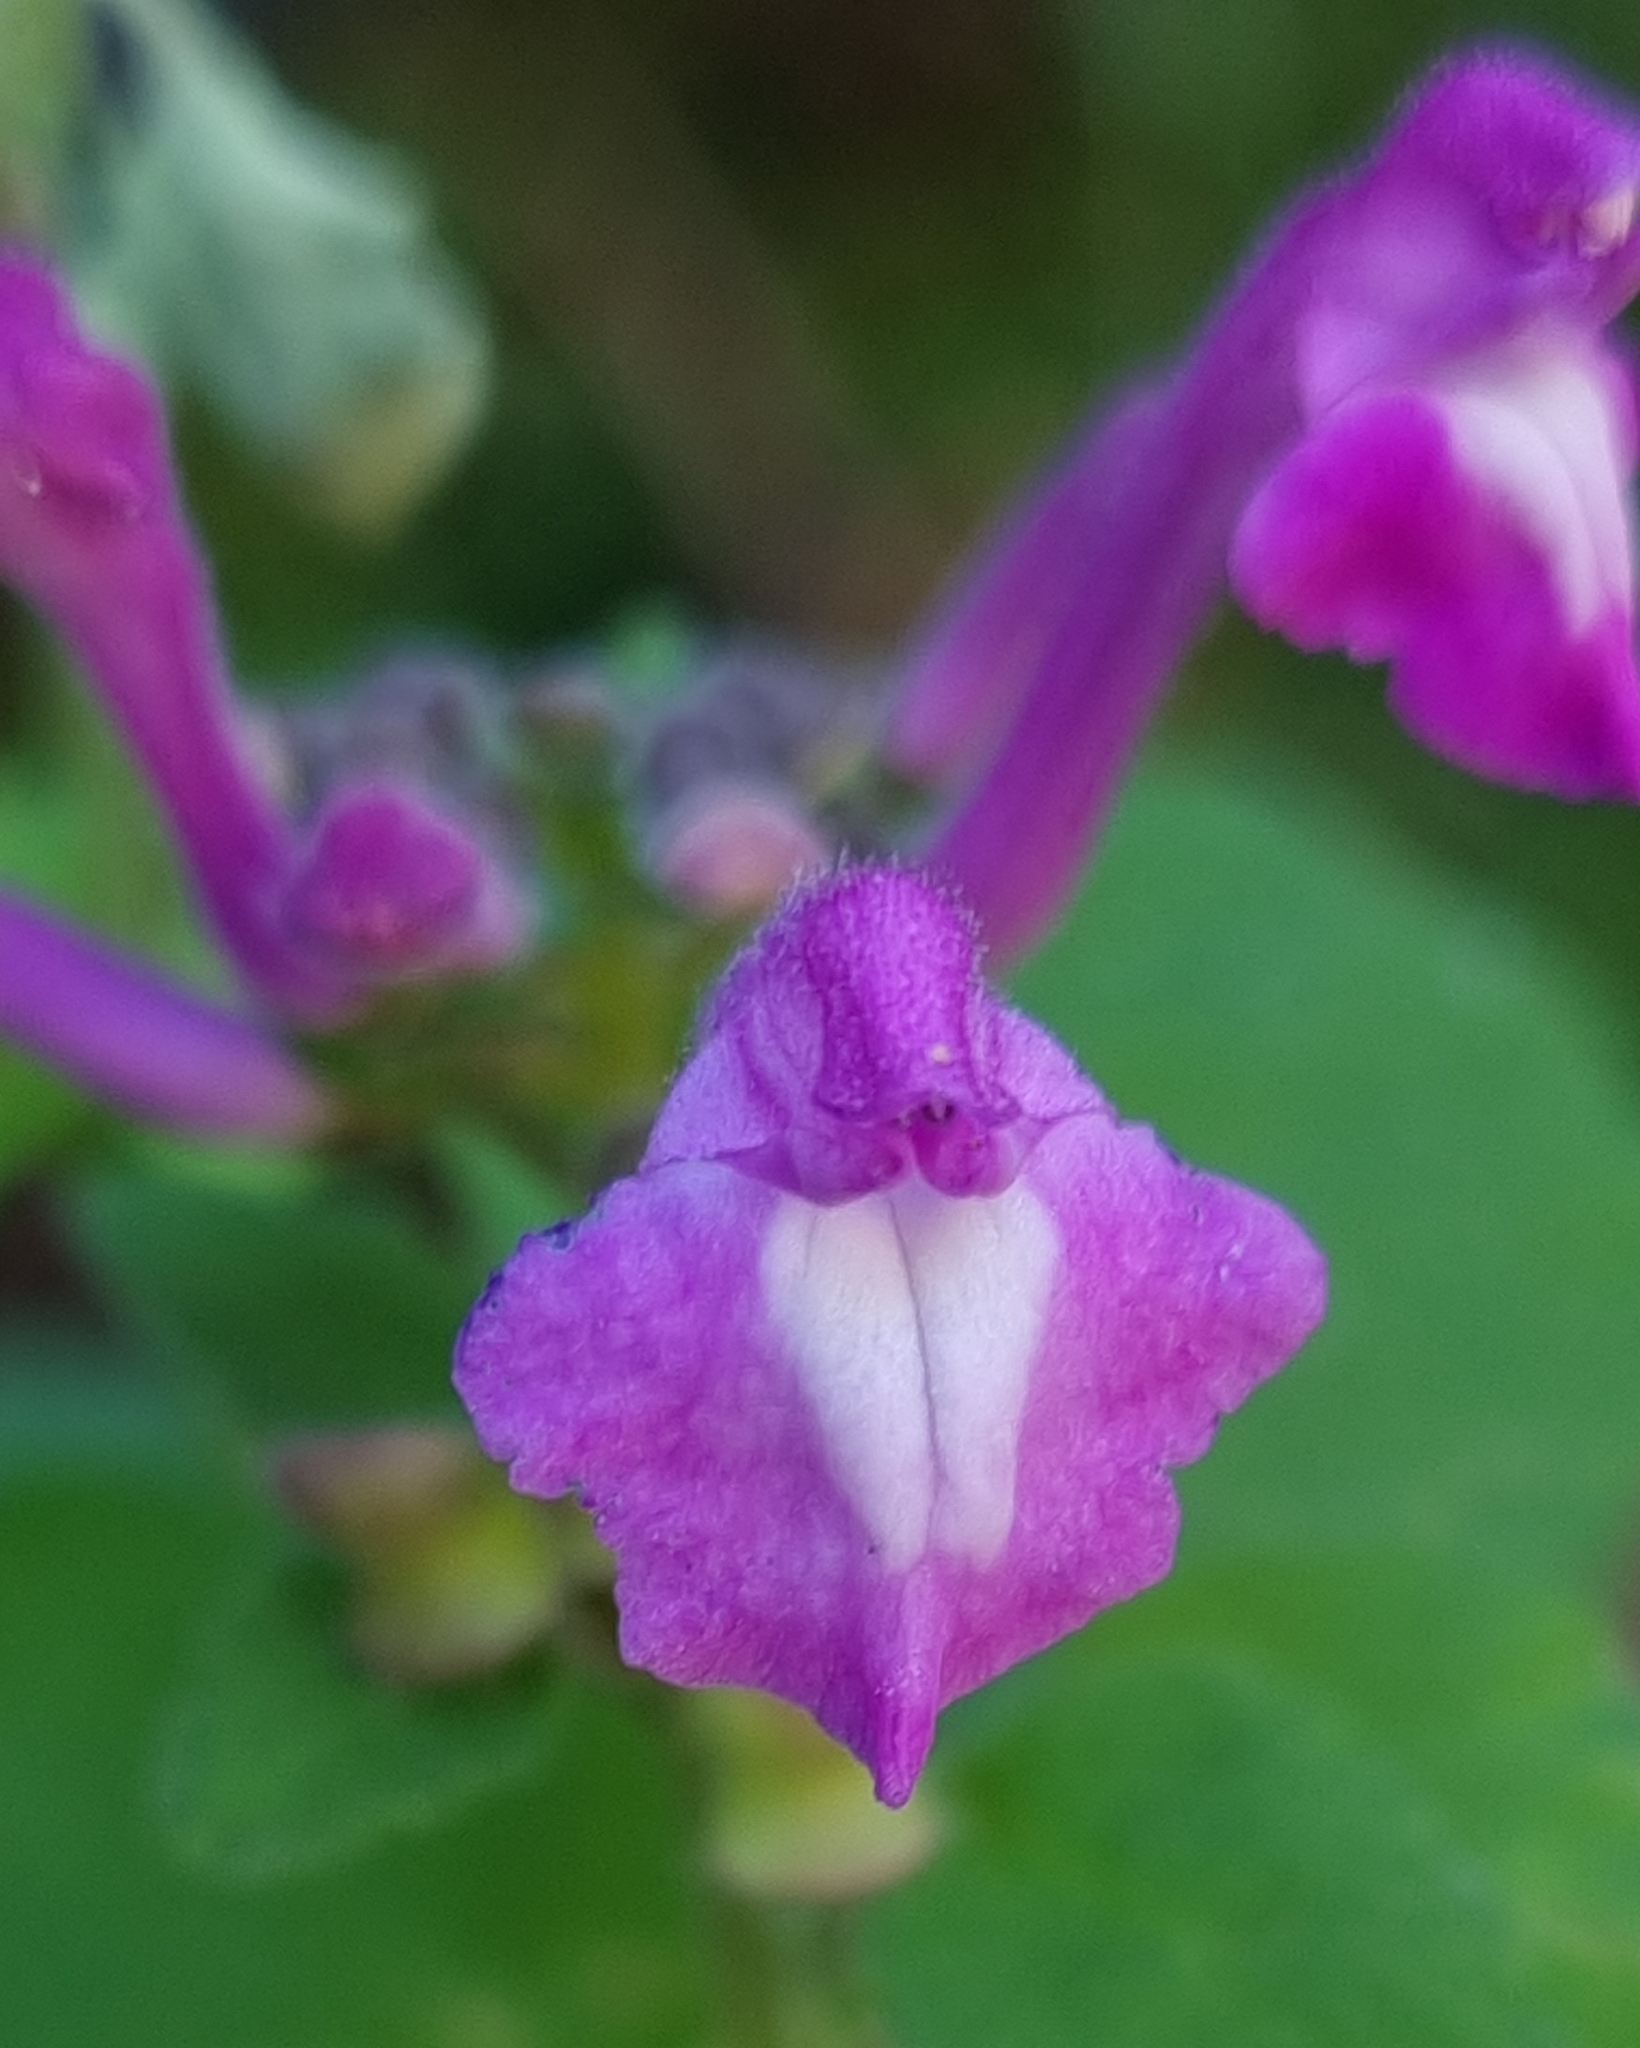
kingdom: Plantae
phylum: Tracheophyta
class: Magnoliopsida
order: Lamiales
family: Lamiaceae
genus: Scutellaria
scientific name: Scutellaria seleriana
